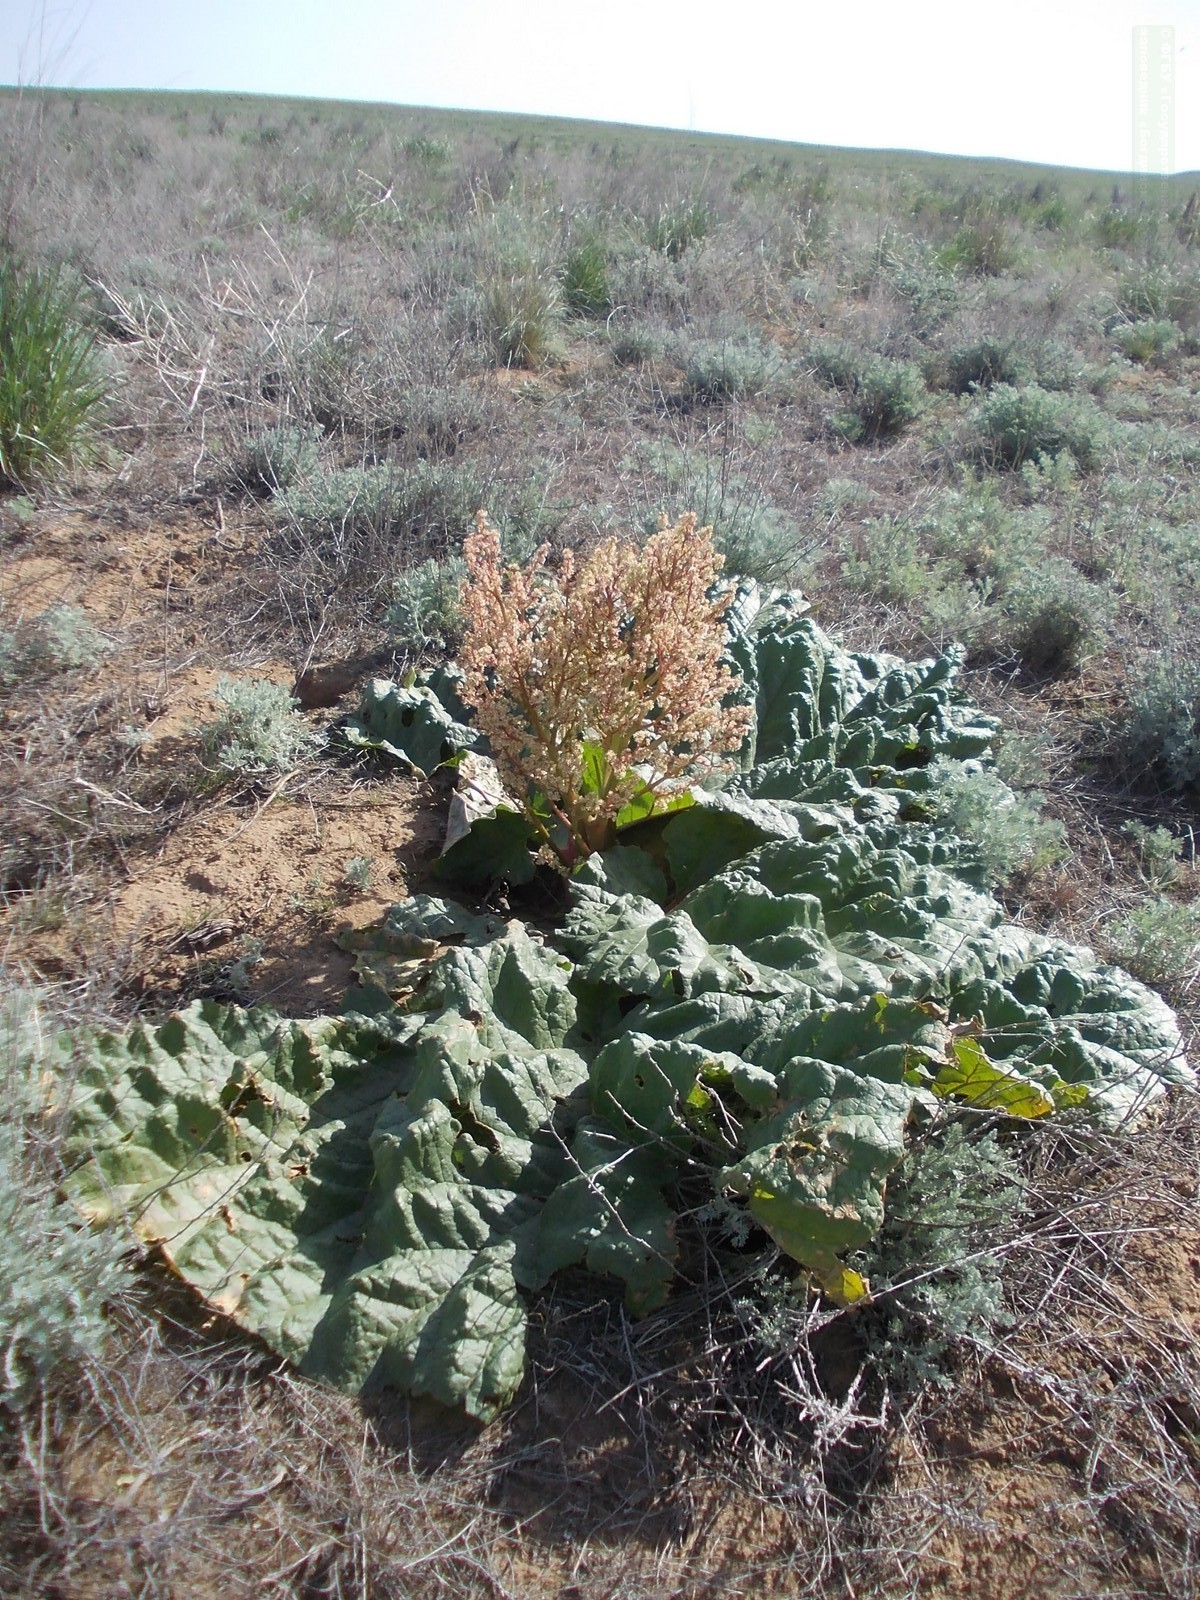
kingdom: Plantae
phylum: Tracheophyta
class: Magnoliopsida
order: Caryophyllales
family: Polygonaceae
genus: Rheum
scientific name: Rheum tataricum
